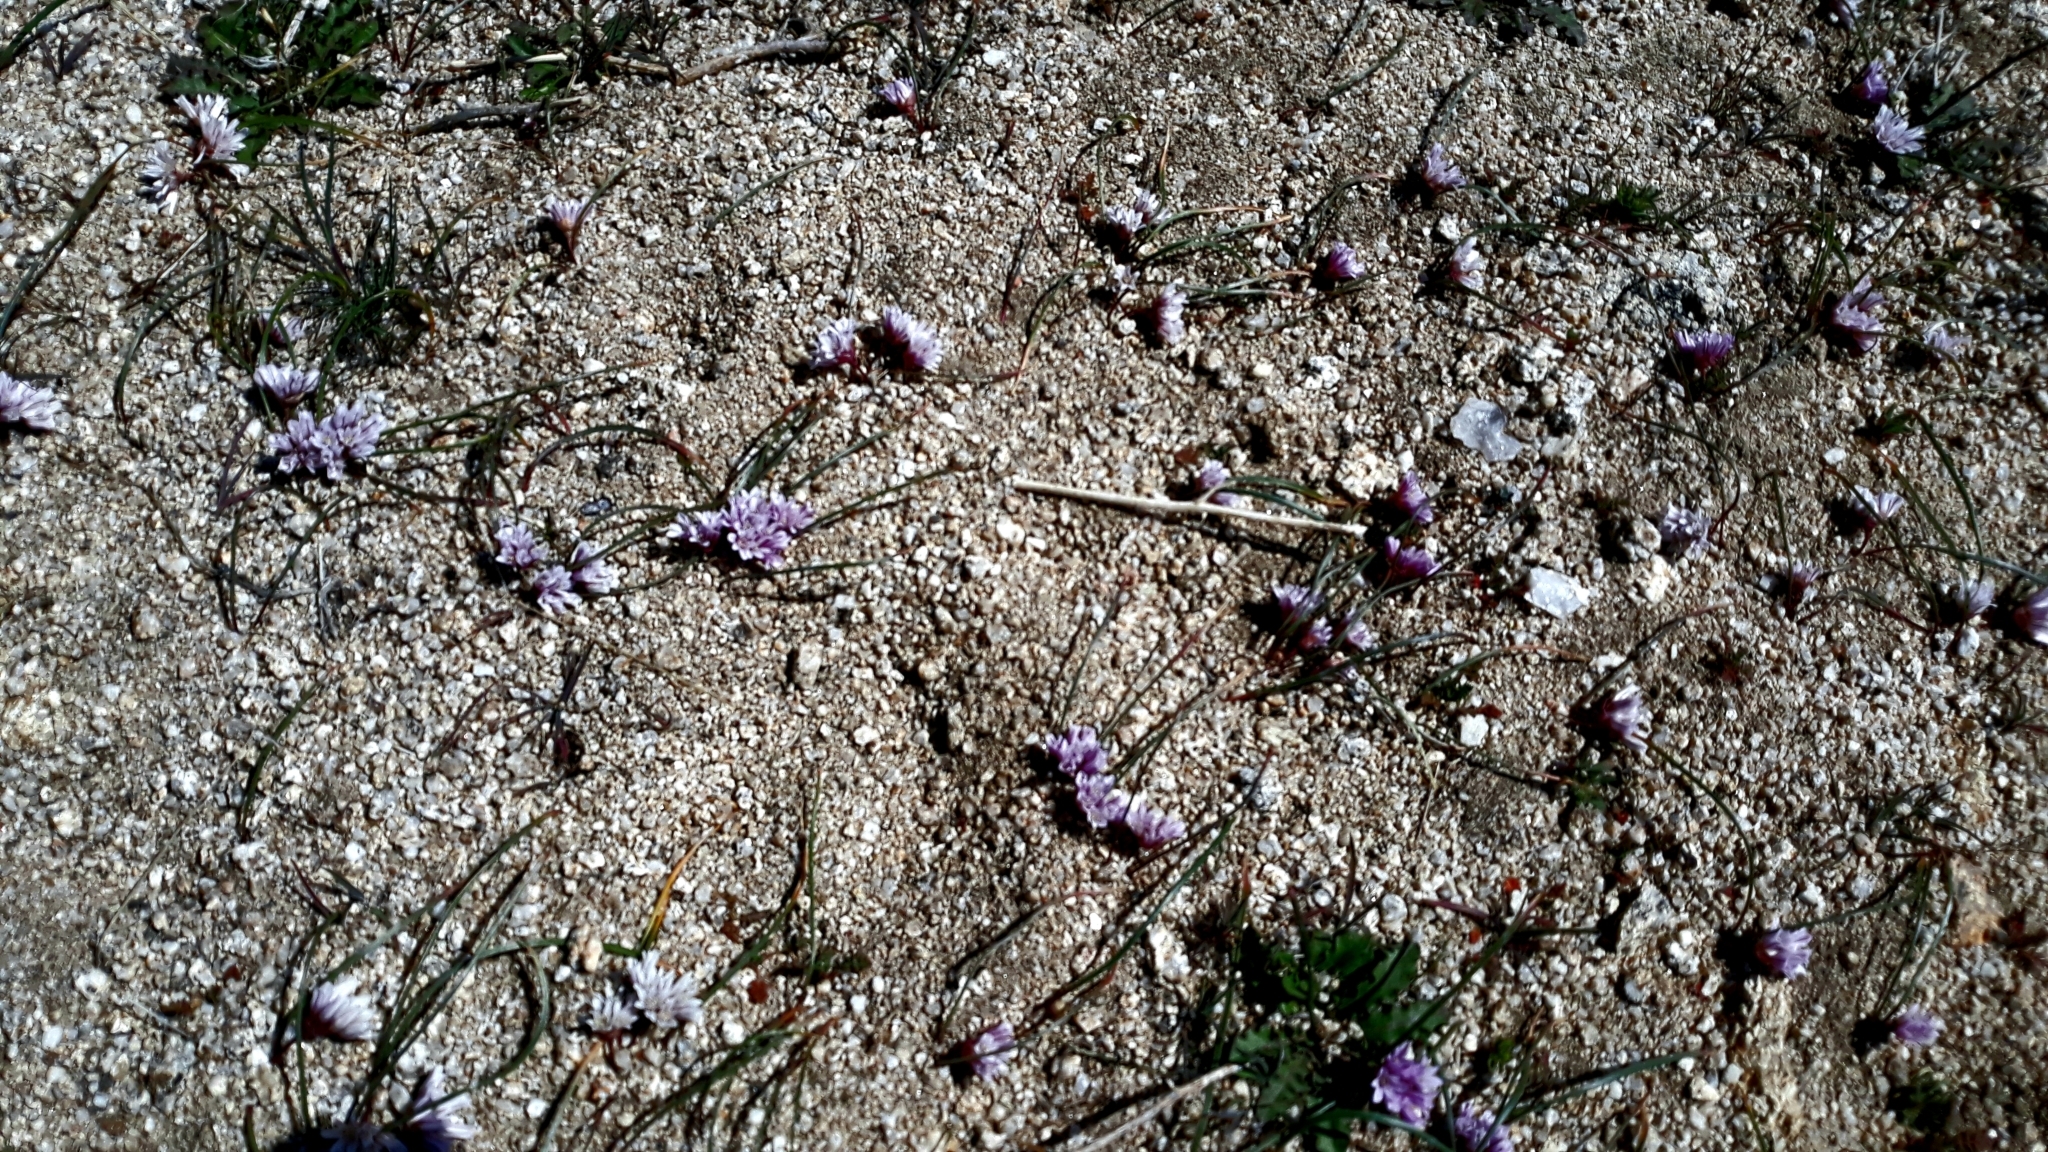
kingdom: Plantae
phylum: Tracheophyta
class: Liliopsida
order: Asparagales
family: Amaryllidaceae
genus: Allium
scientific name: Allium aaseae
